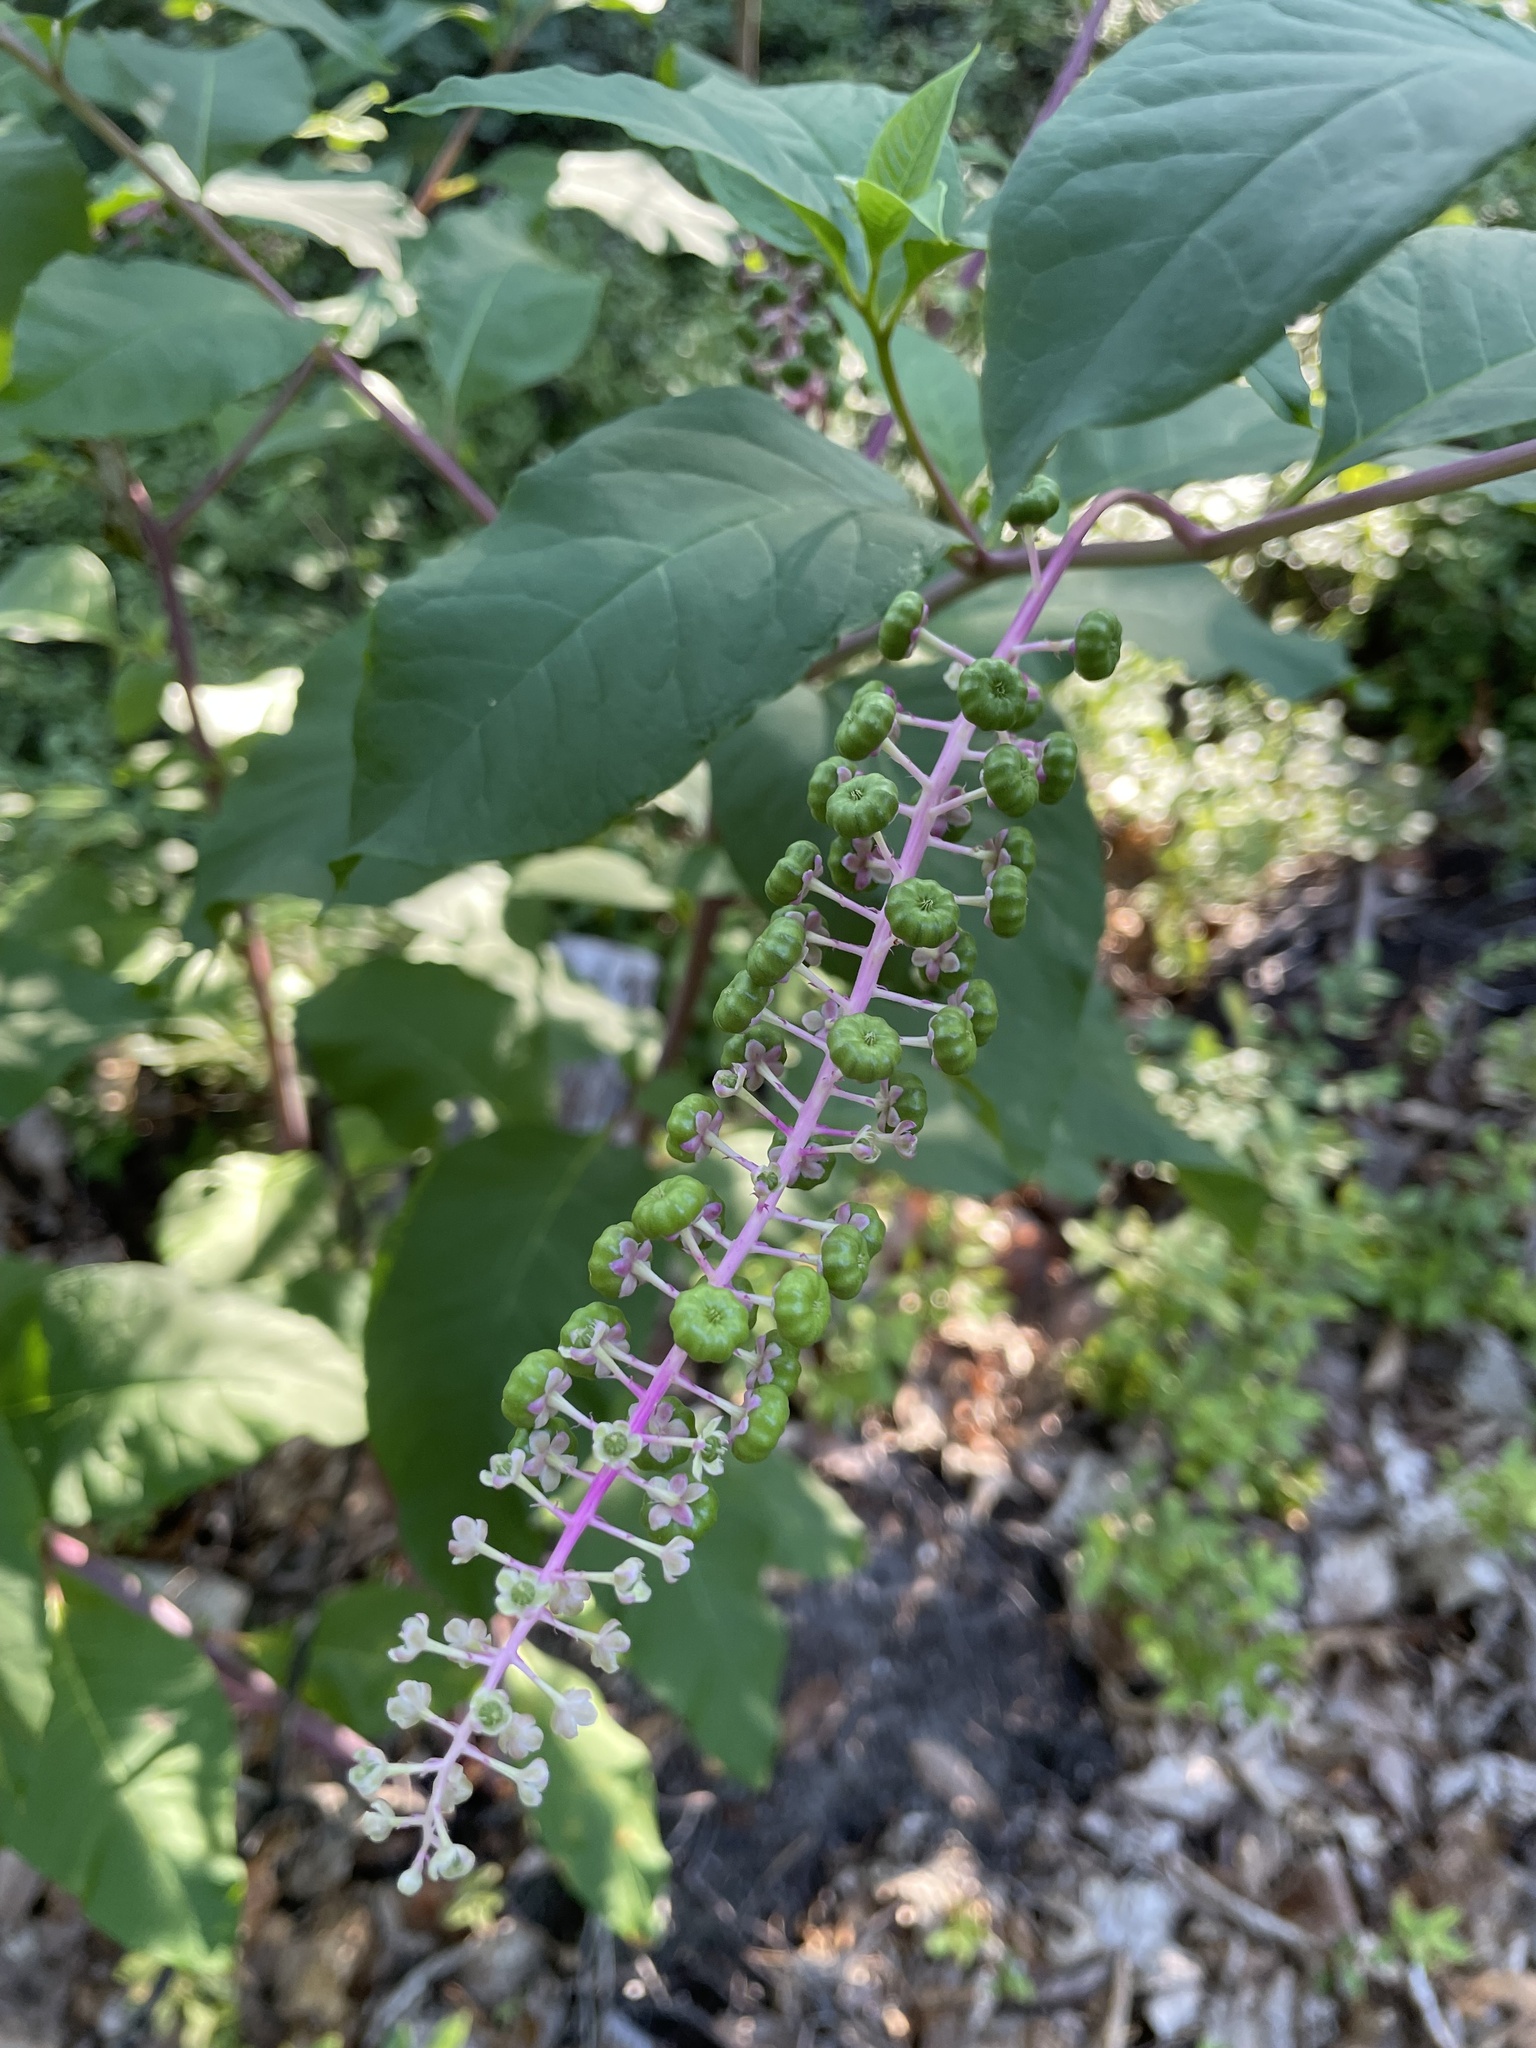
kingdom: Plantae
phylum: Tracheophyta
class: Magnoliopsida
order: Caryophyllales
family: Phytolaccaceae
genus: Phytolacca
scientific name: Phytolacca americana
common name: American pokeweed
